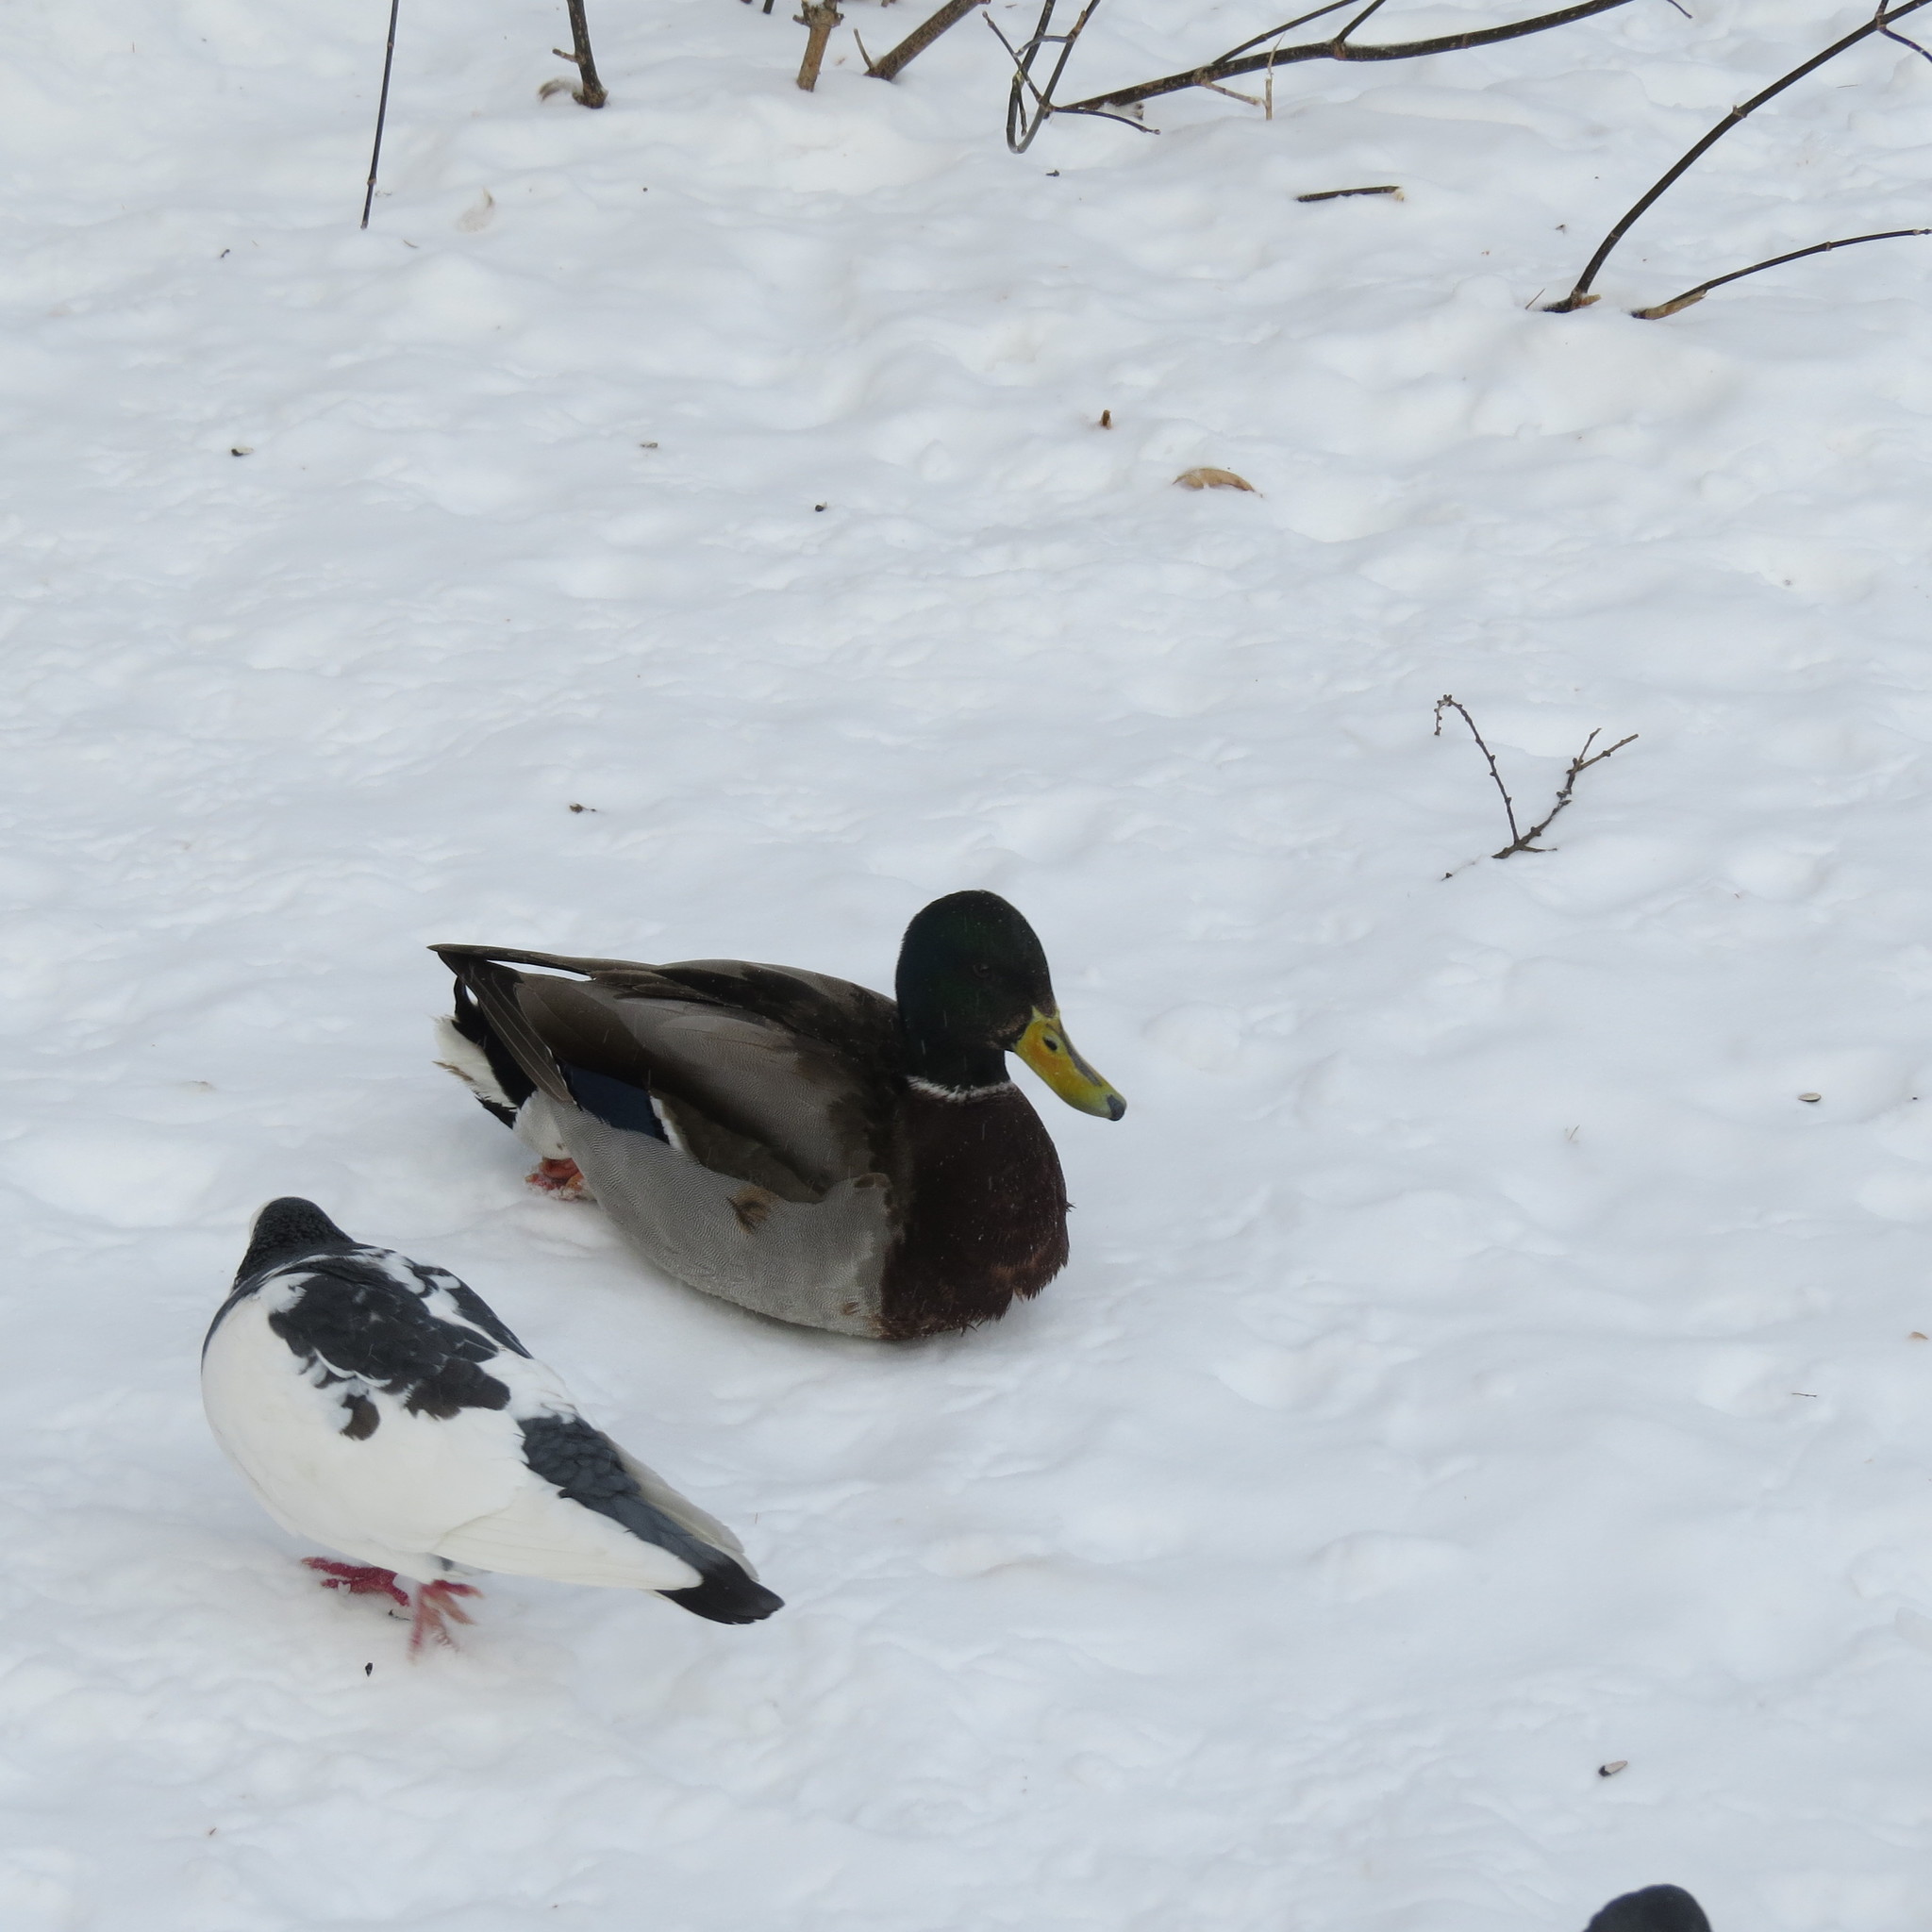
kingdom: Animalia
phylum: Chordata
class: Aves
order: Anseriformes
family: Anatidae
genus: Anas
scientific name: Anas platyrhynchos
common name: Mallard
